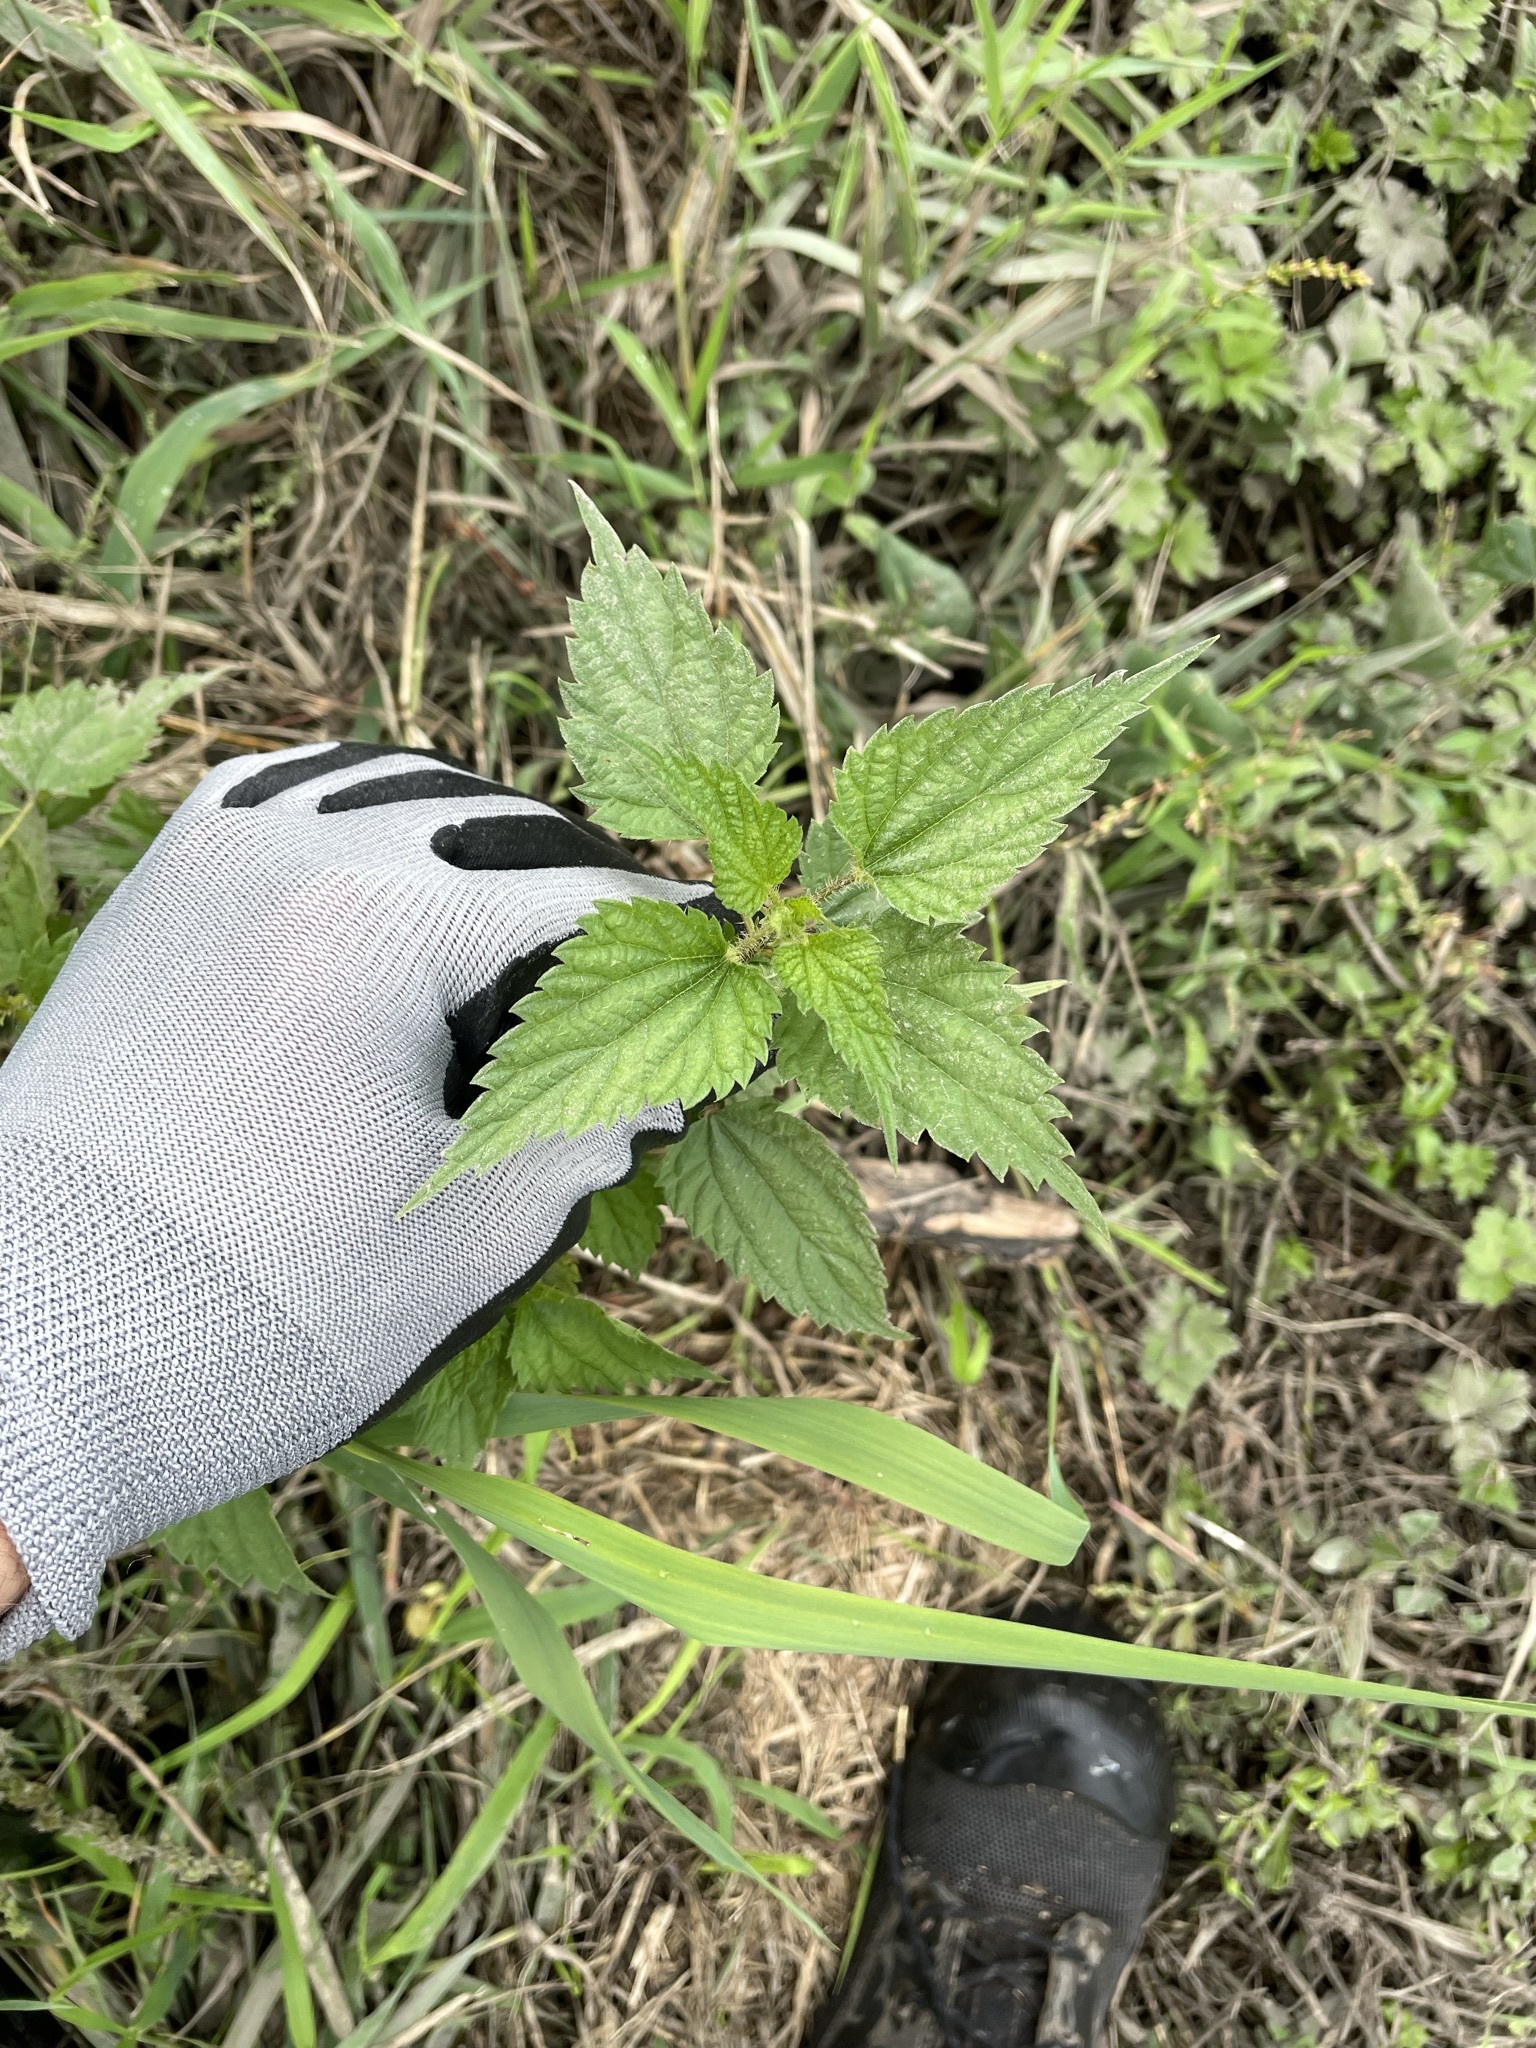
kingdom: Plantae
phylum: Tracheophyta
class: Magnoliopsida
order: Rosales
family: Urticaceae
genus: Urtica
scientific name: Urtica dioica
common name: Common nettle
